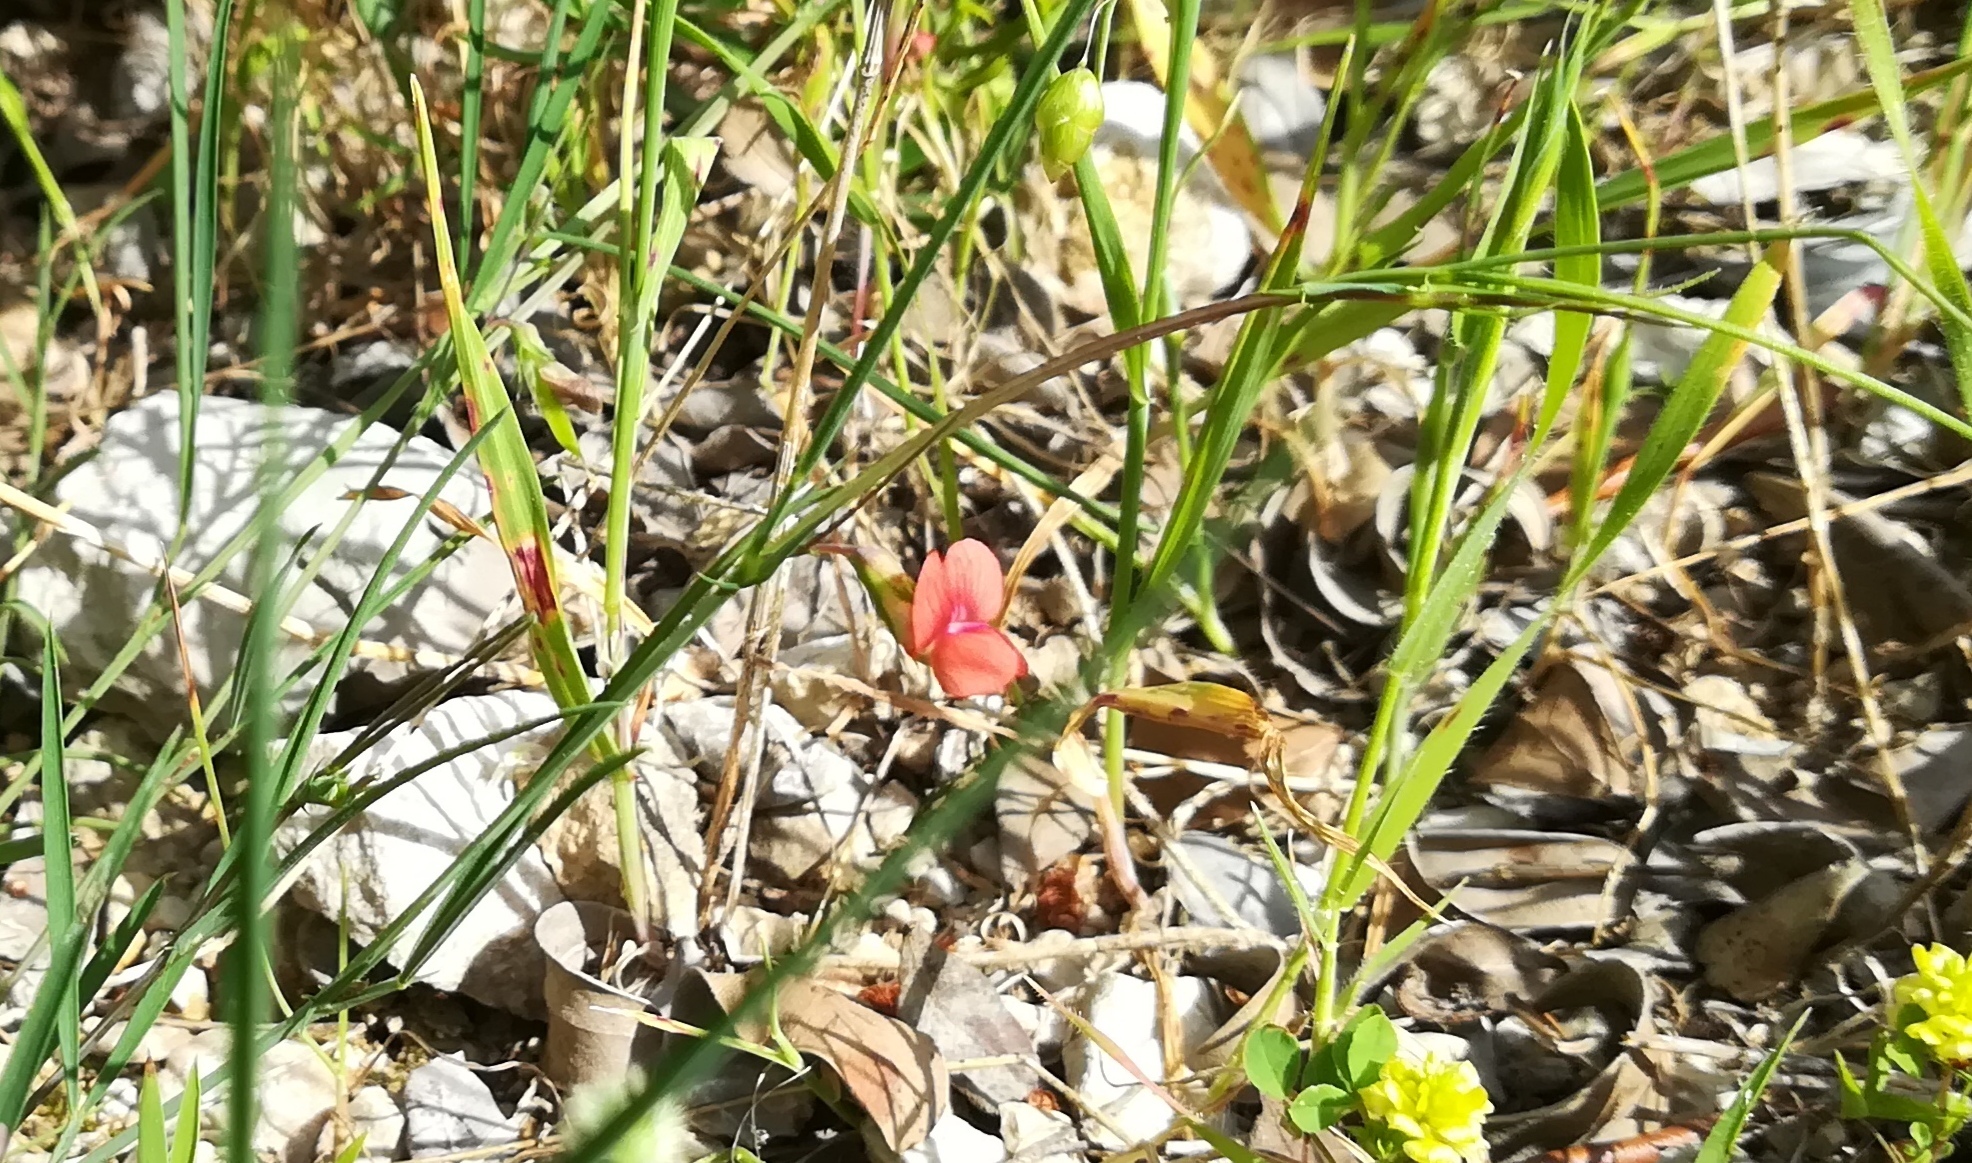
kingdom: Plantae
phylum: Tracheophyta
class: Magnoliopsida
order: Fabales
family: Fabaceae
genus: Lathyrus
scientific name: Lathyrus cicera
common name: Red vetchling
